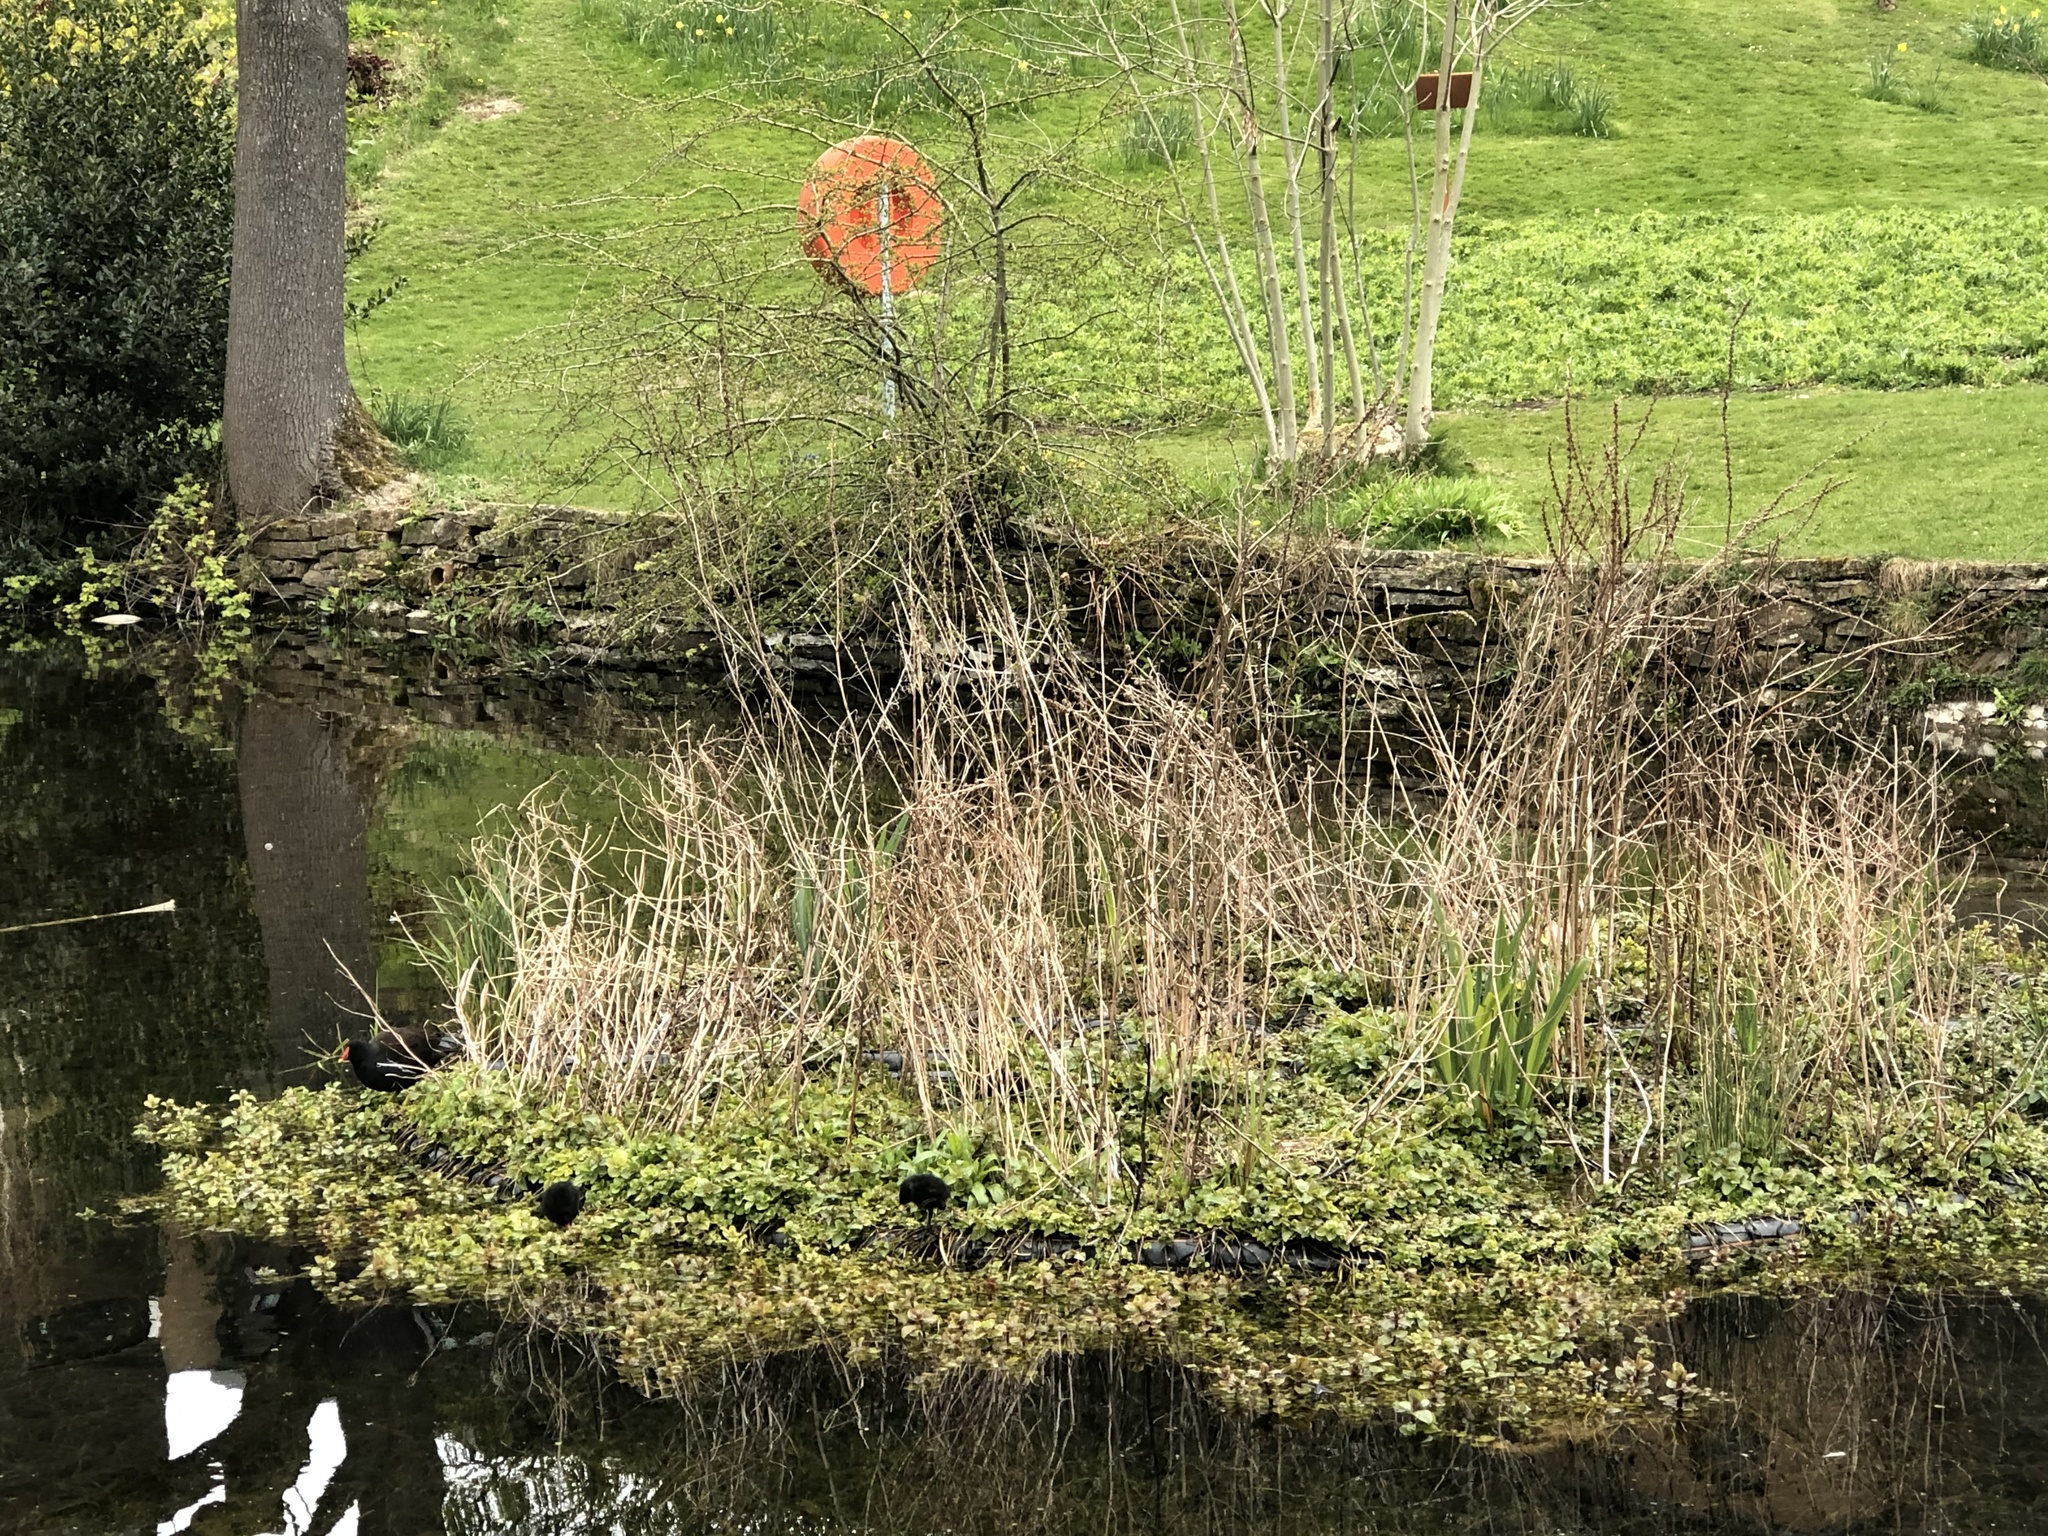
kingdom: Animalia
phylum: Chordata
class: Aves
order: Gruiformes
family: Rallidae
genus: Gallinula
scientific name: Gallinula chloropus
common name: Common moorhen
